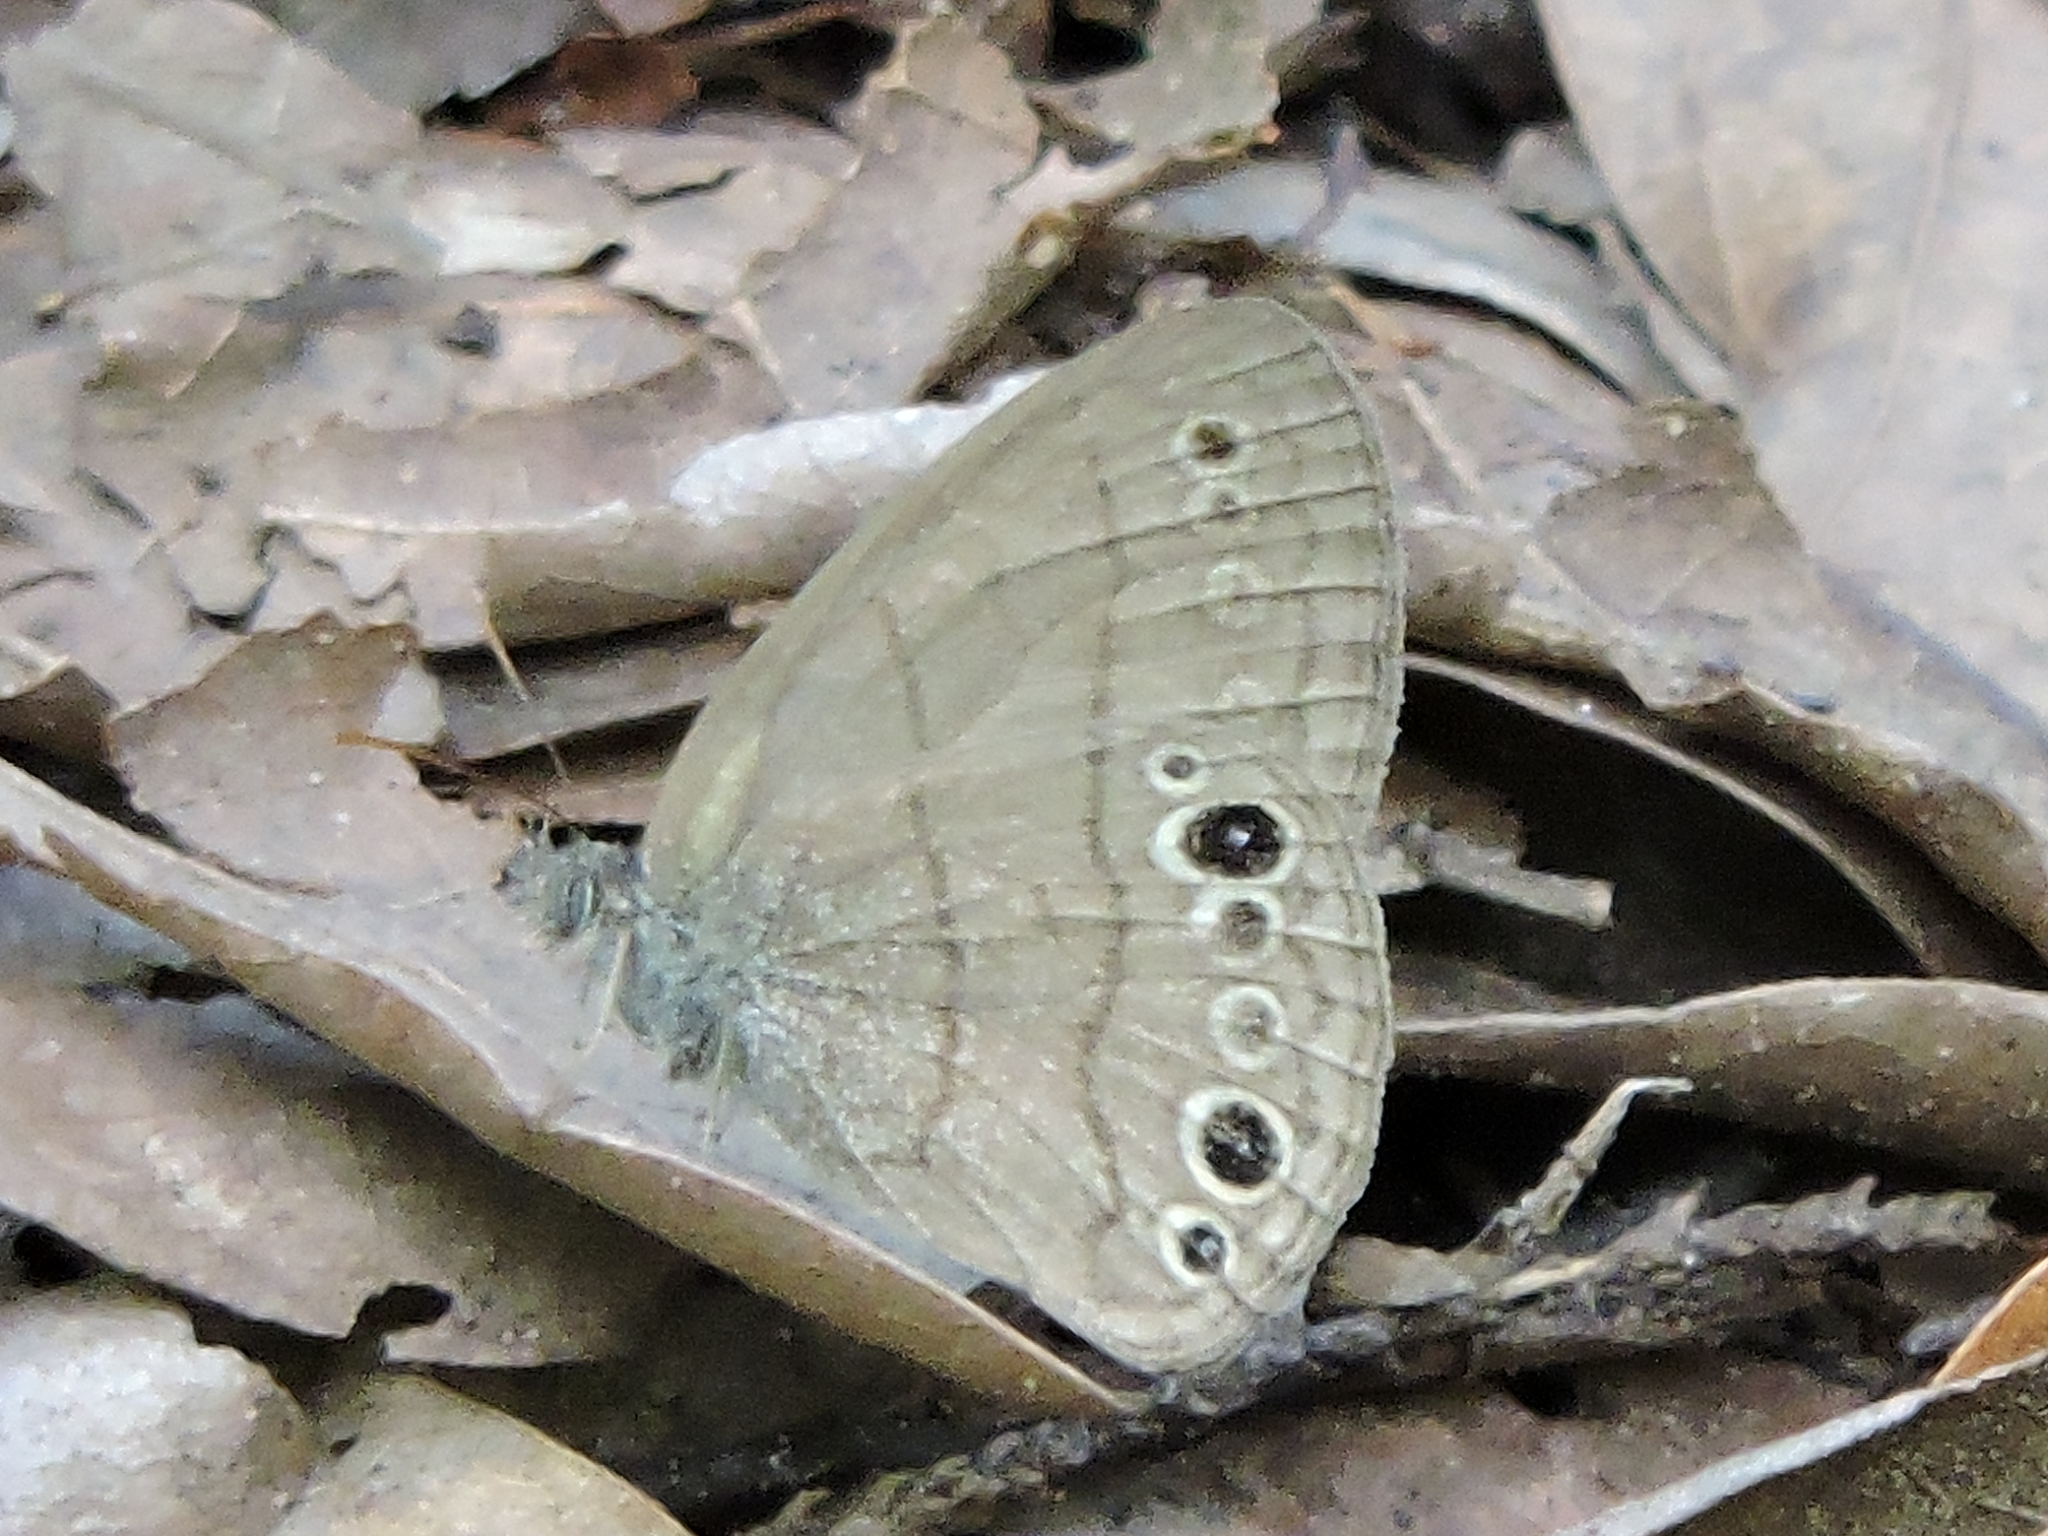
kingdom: Animalia
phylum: Arthropoda
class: Insecta
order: Lepidoptera
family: Nymphalidae
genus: Hermeuptychia
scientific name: Hermeuptychia hermes
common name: Hermes satyr
